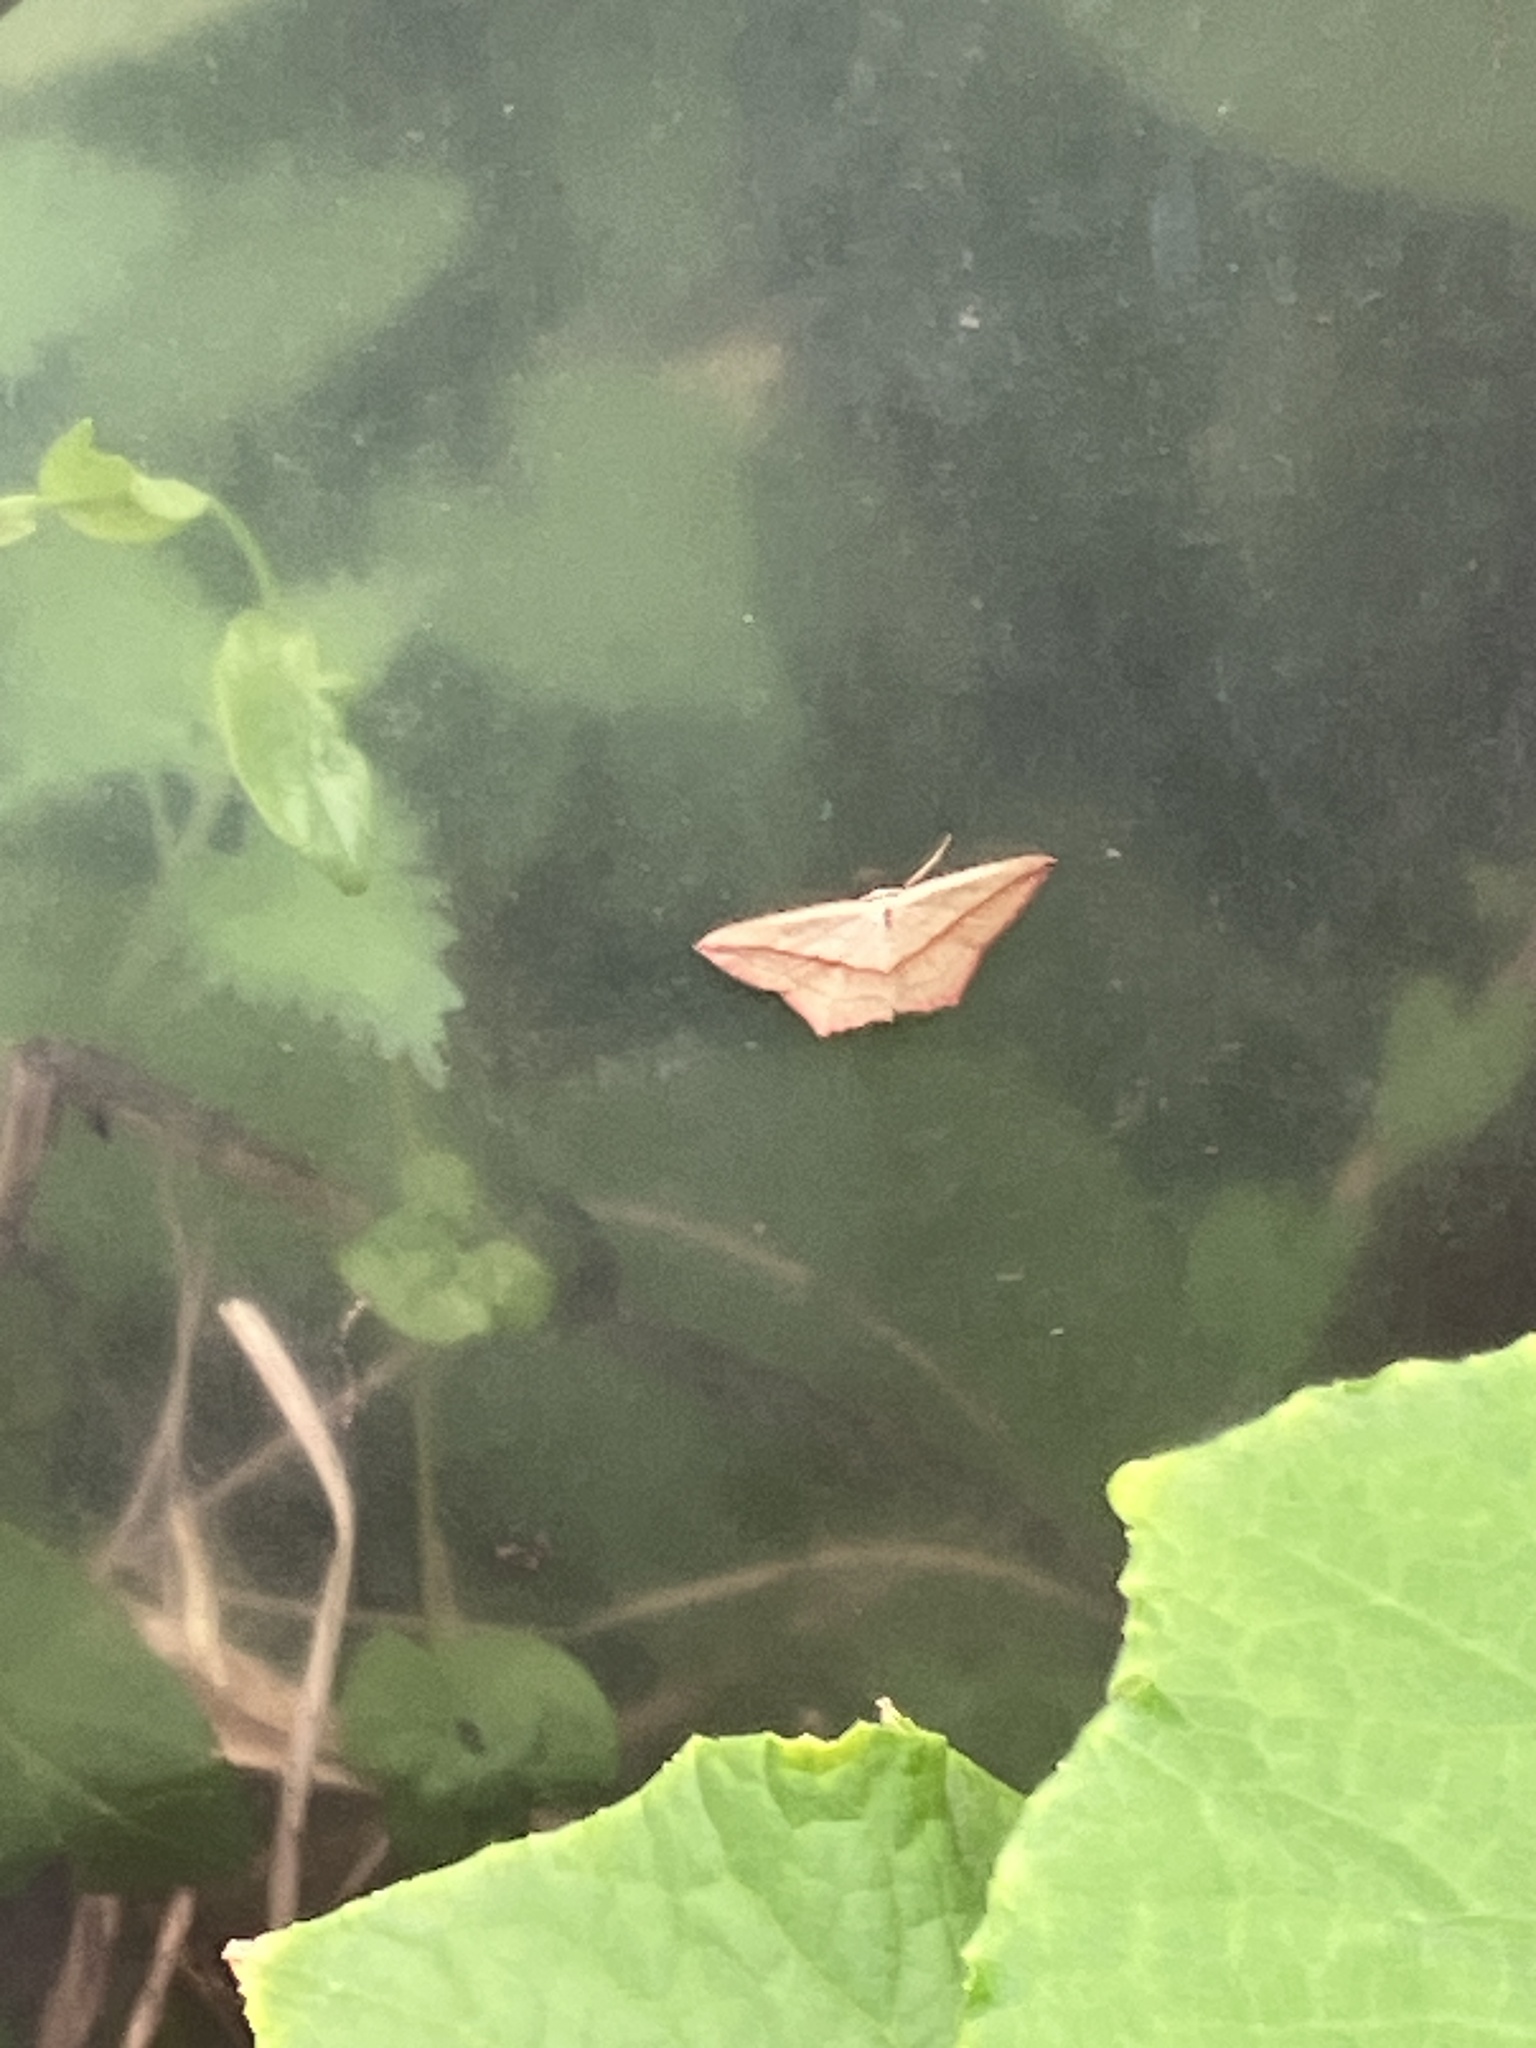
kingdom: Animalia
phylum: Arthropoda
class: Insecta
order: Lepidoptera
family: Geometridae
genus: Timandra
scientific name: Timandra comae
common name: Blood-vein
